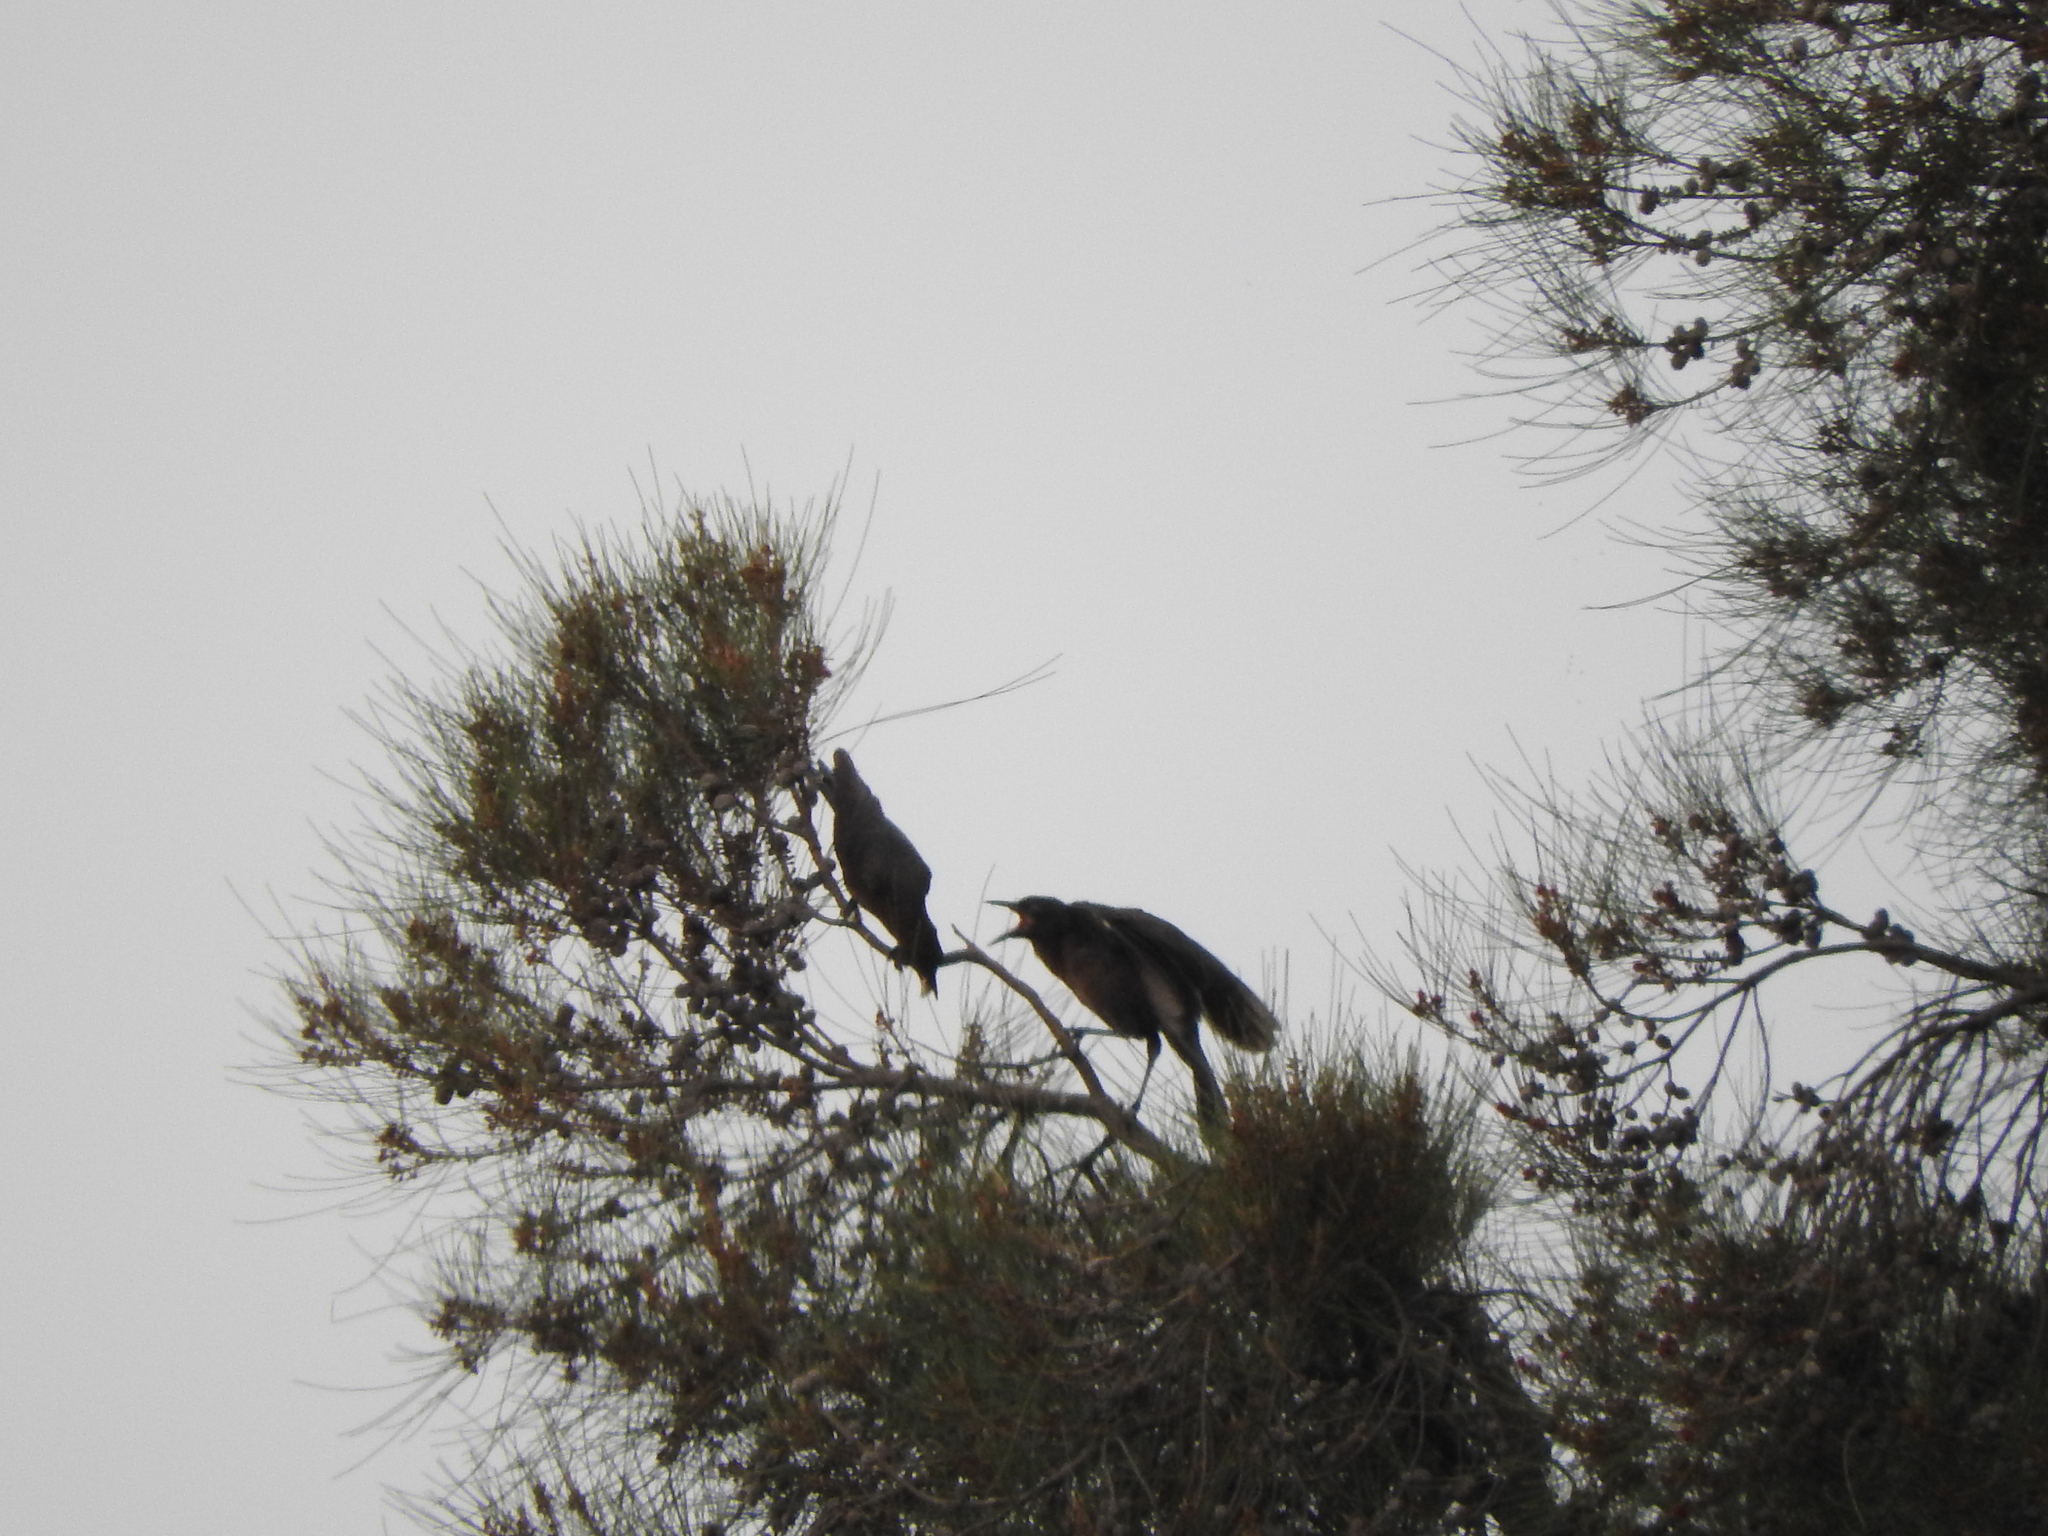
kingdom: Animalia
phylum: Chordata
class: Aves
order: Passeriformes
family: Icteridae
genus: Quiscalus
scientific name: Quiscalus mexicanus
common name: Great-tailed grackle
